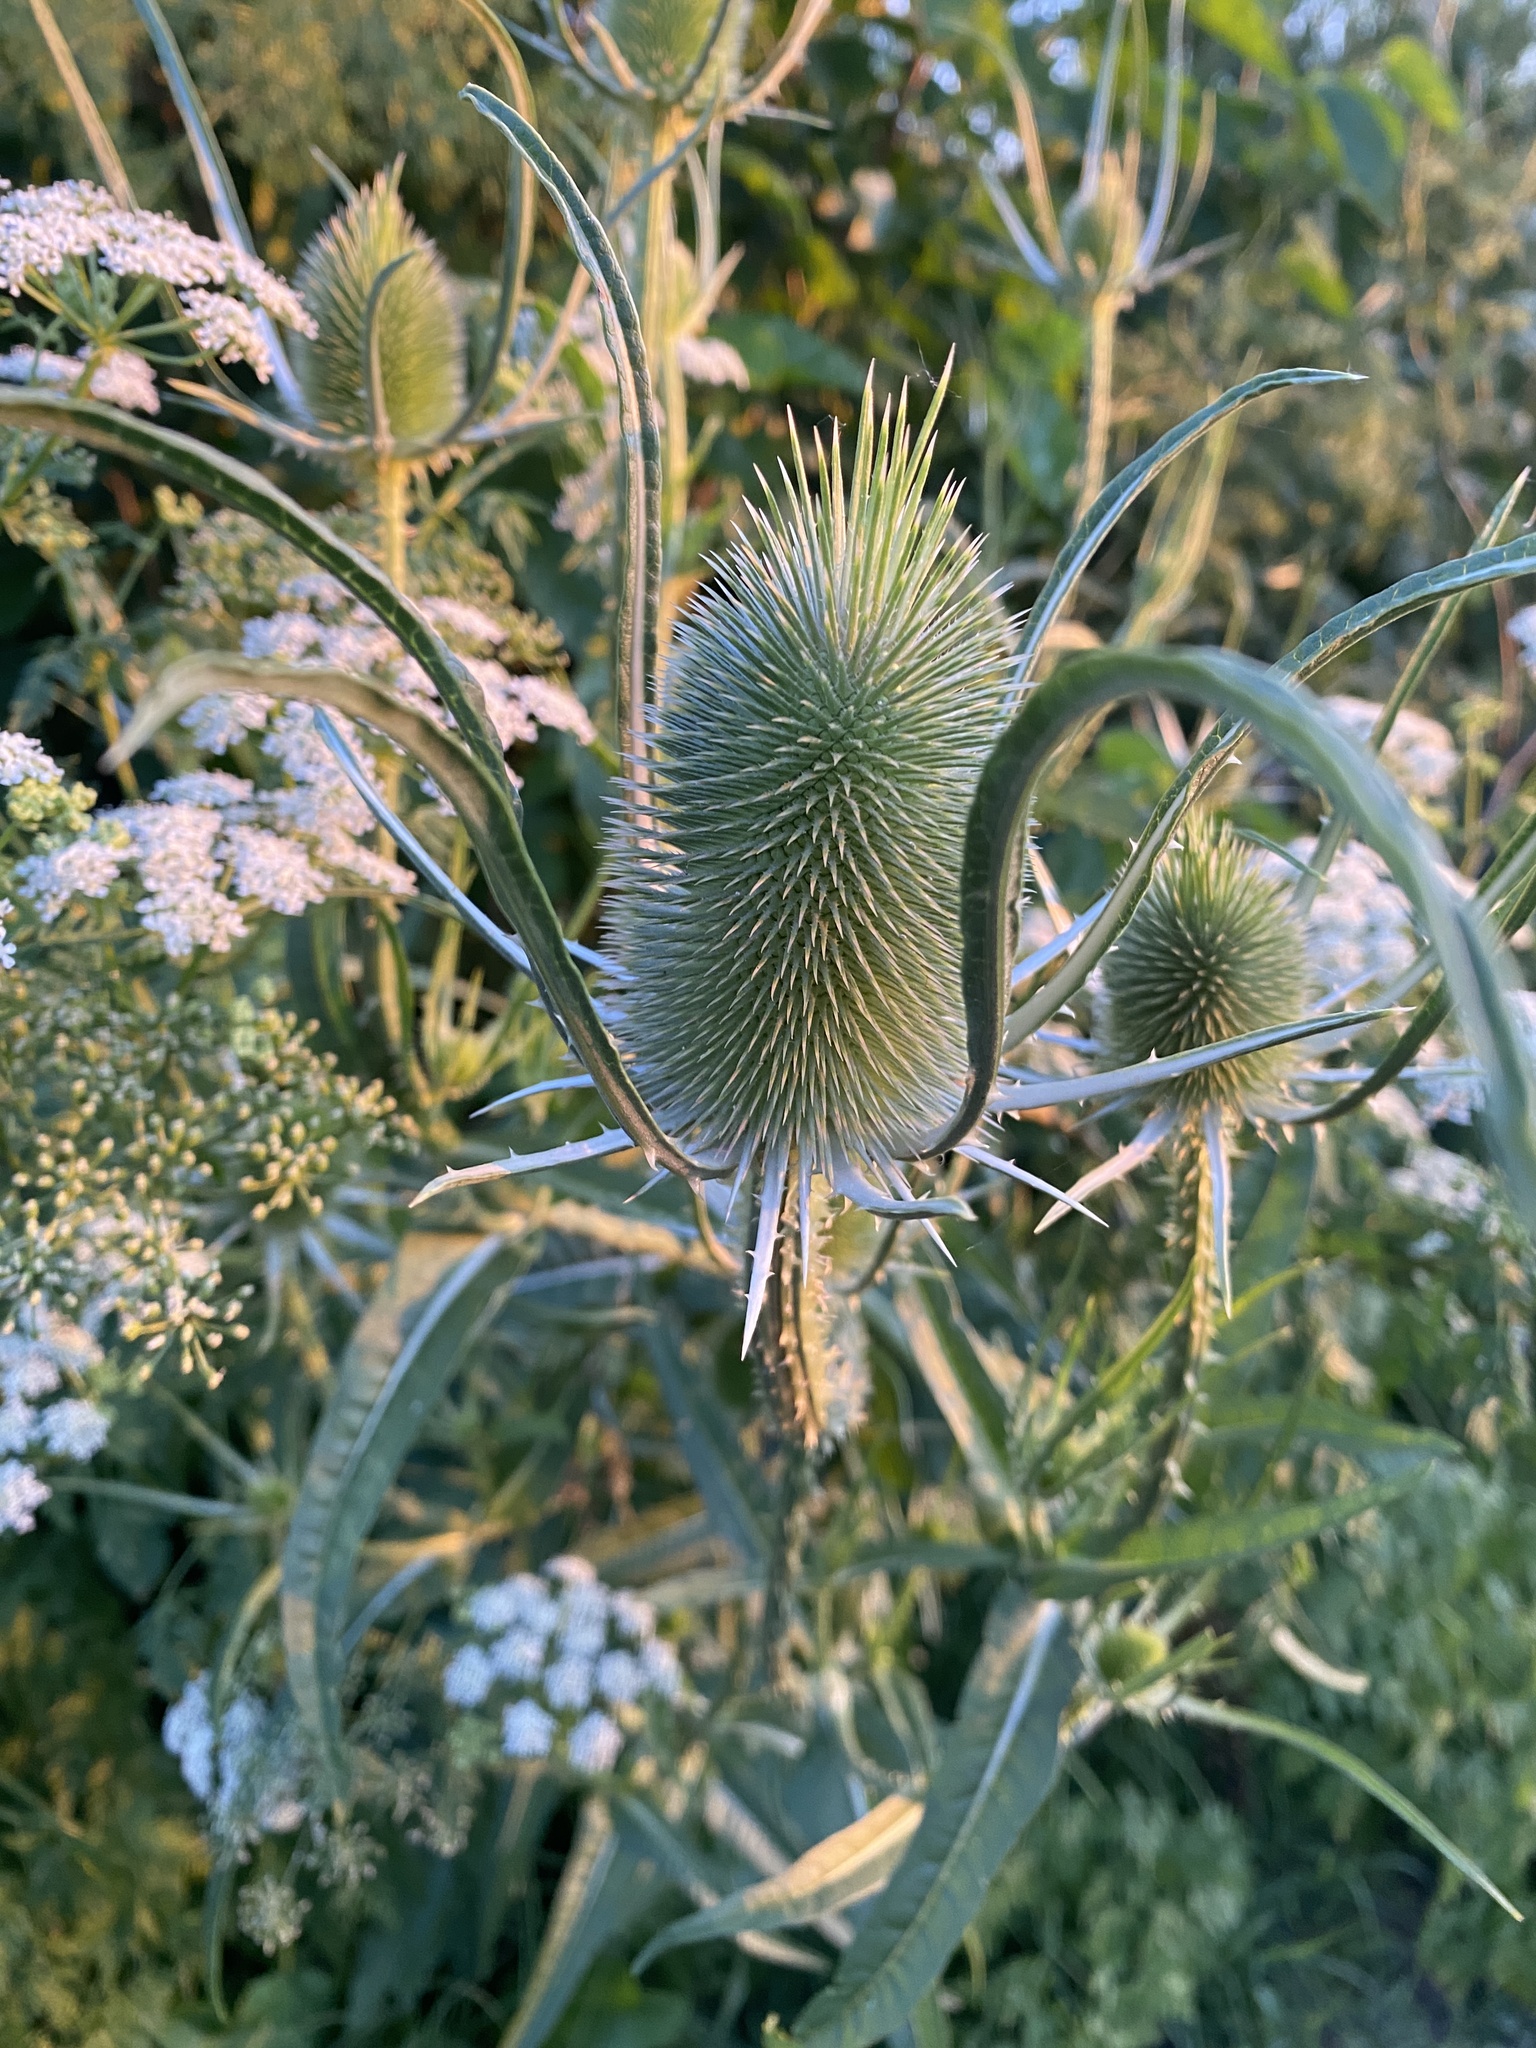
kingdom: Plantae
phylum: Tracheophyta
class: Magnoliopsida
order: Dipsacales
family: Caprifoliaceae
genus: Dipsacus
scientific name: Dipsacus fullonum
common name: Teasel
